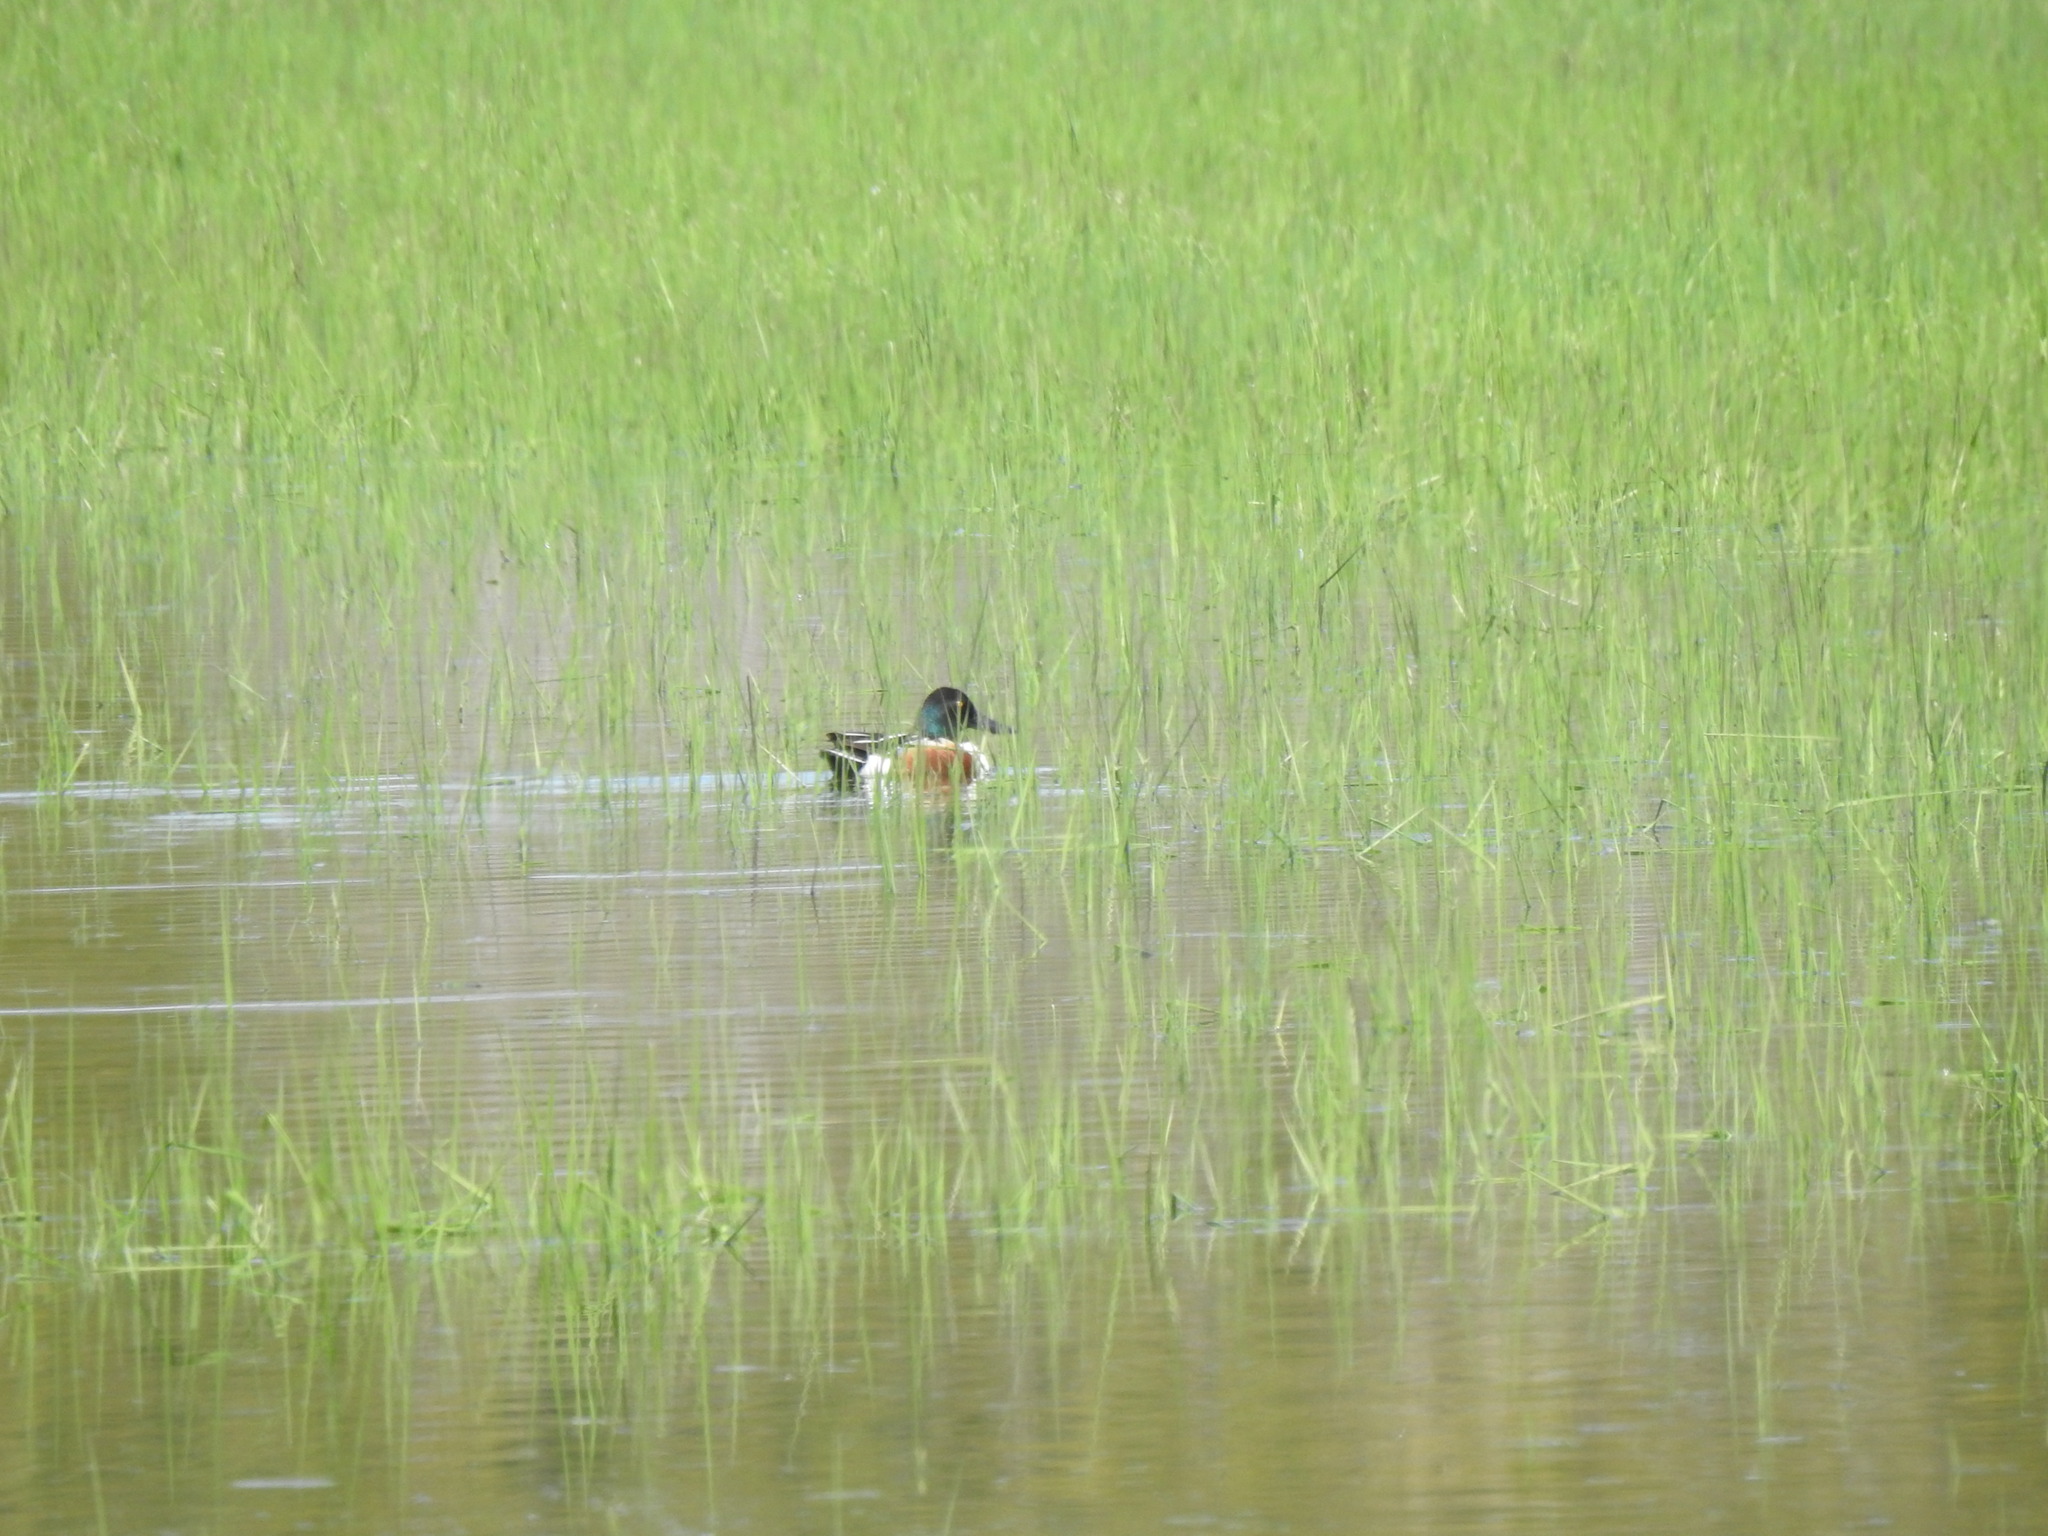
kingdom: Animalia
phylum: Chordata
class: Aves
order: Anseriformes
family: Anatidae
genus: Spatula
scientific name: Spatula clypeata
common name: Northern shoveler
